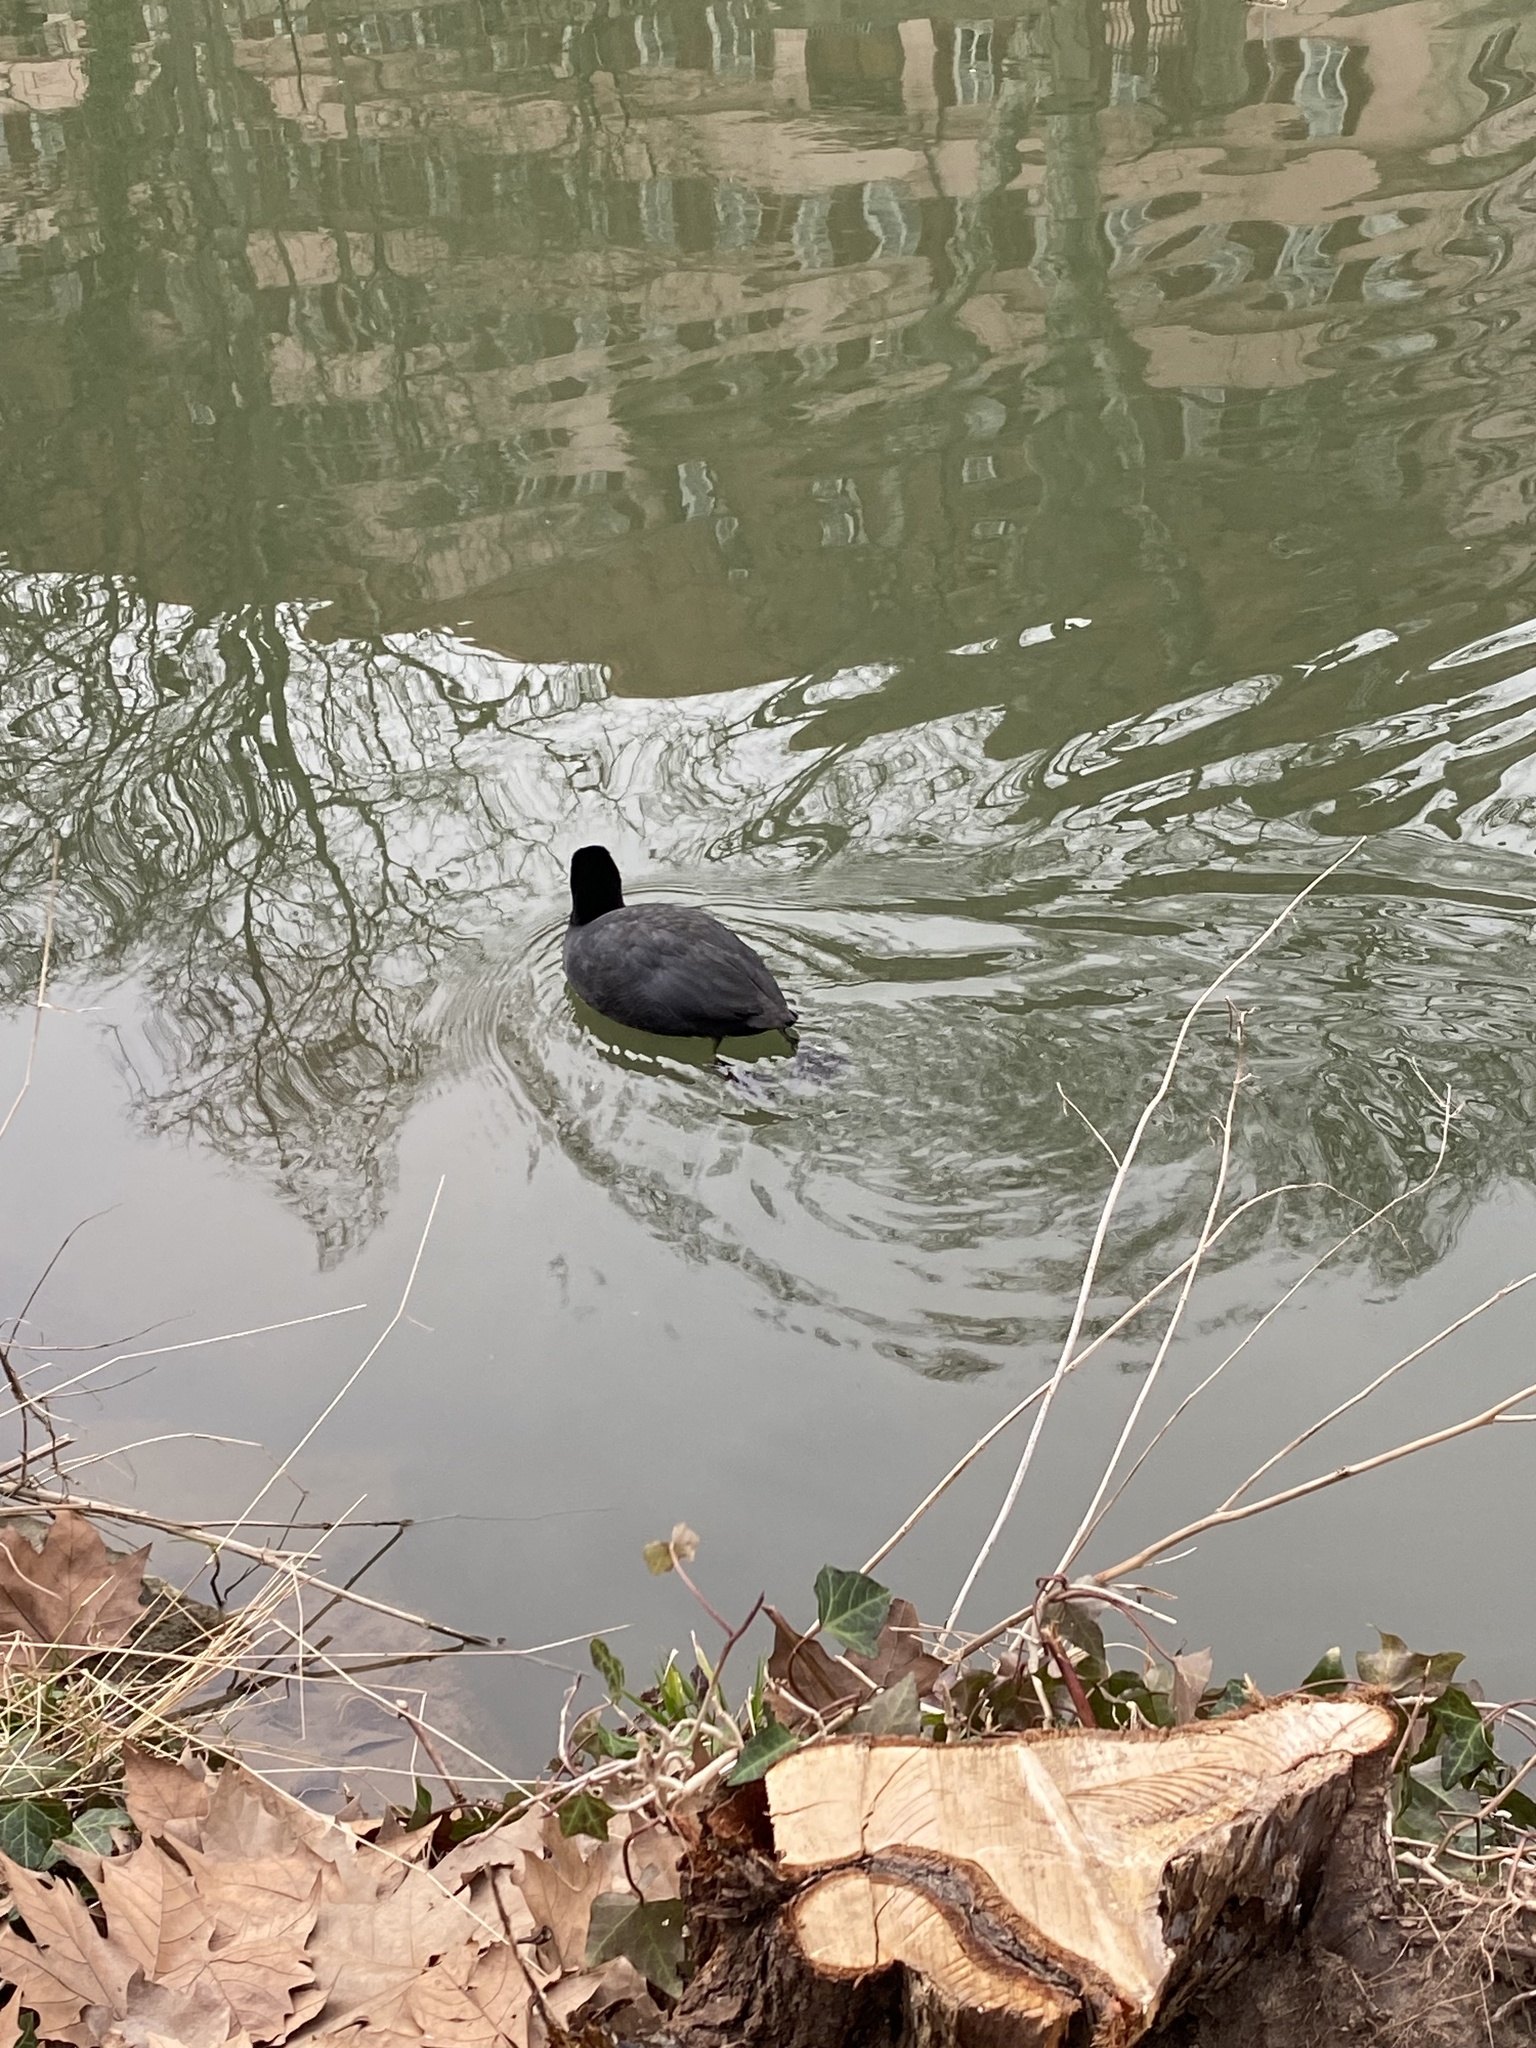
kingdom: Animalia
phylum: Chordata
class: Aves
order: Gruiformes
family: Rallidae
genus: Fulica
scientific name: Fulica atra
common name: Eurasian coot
